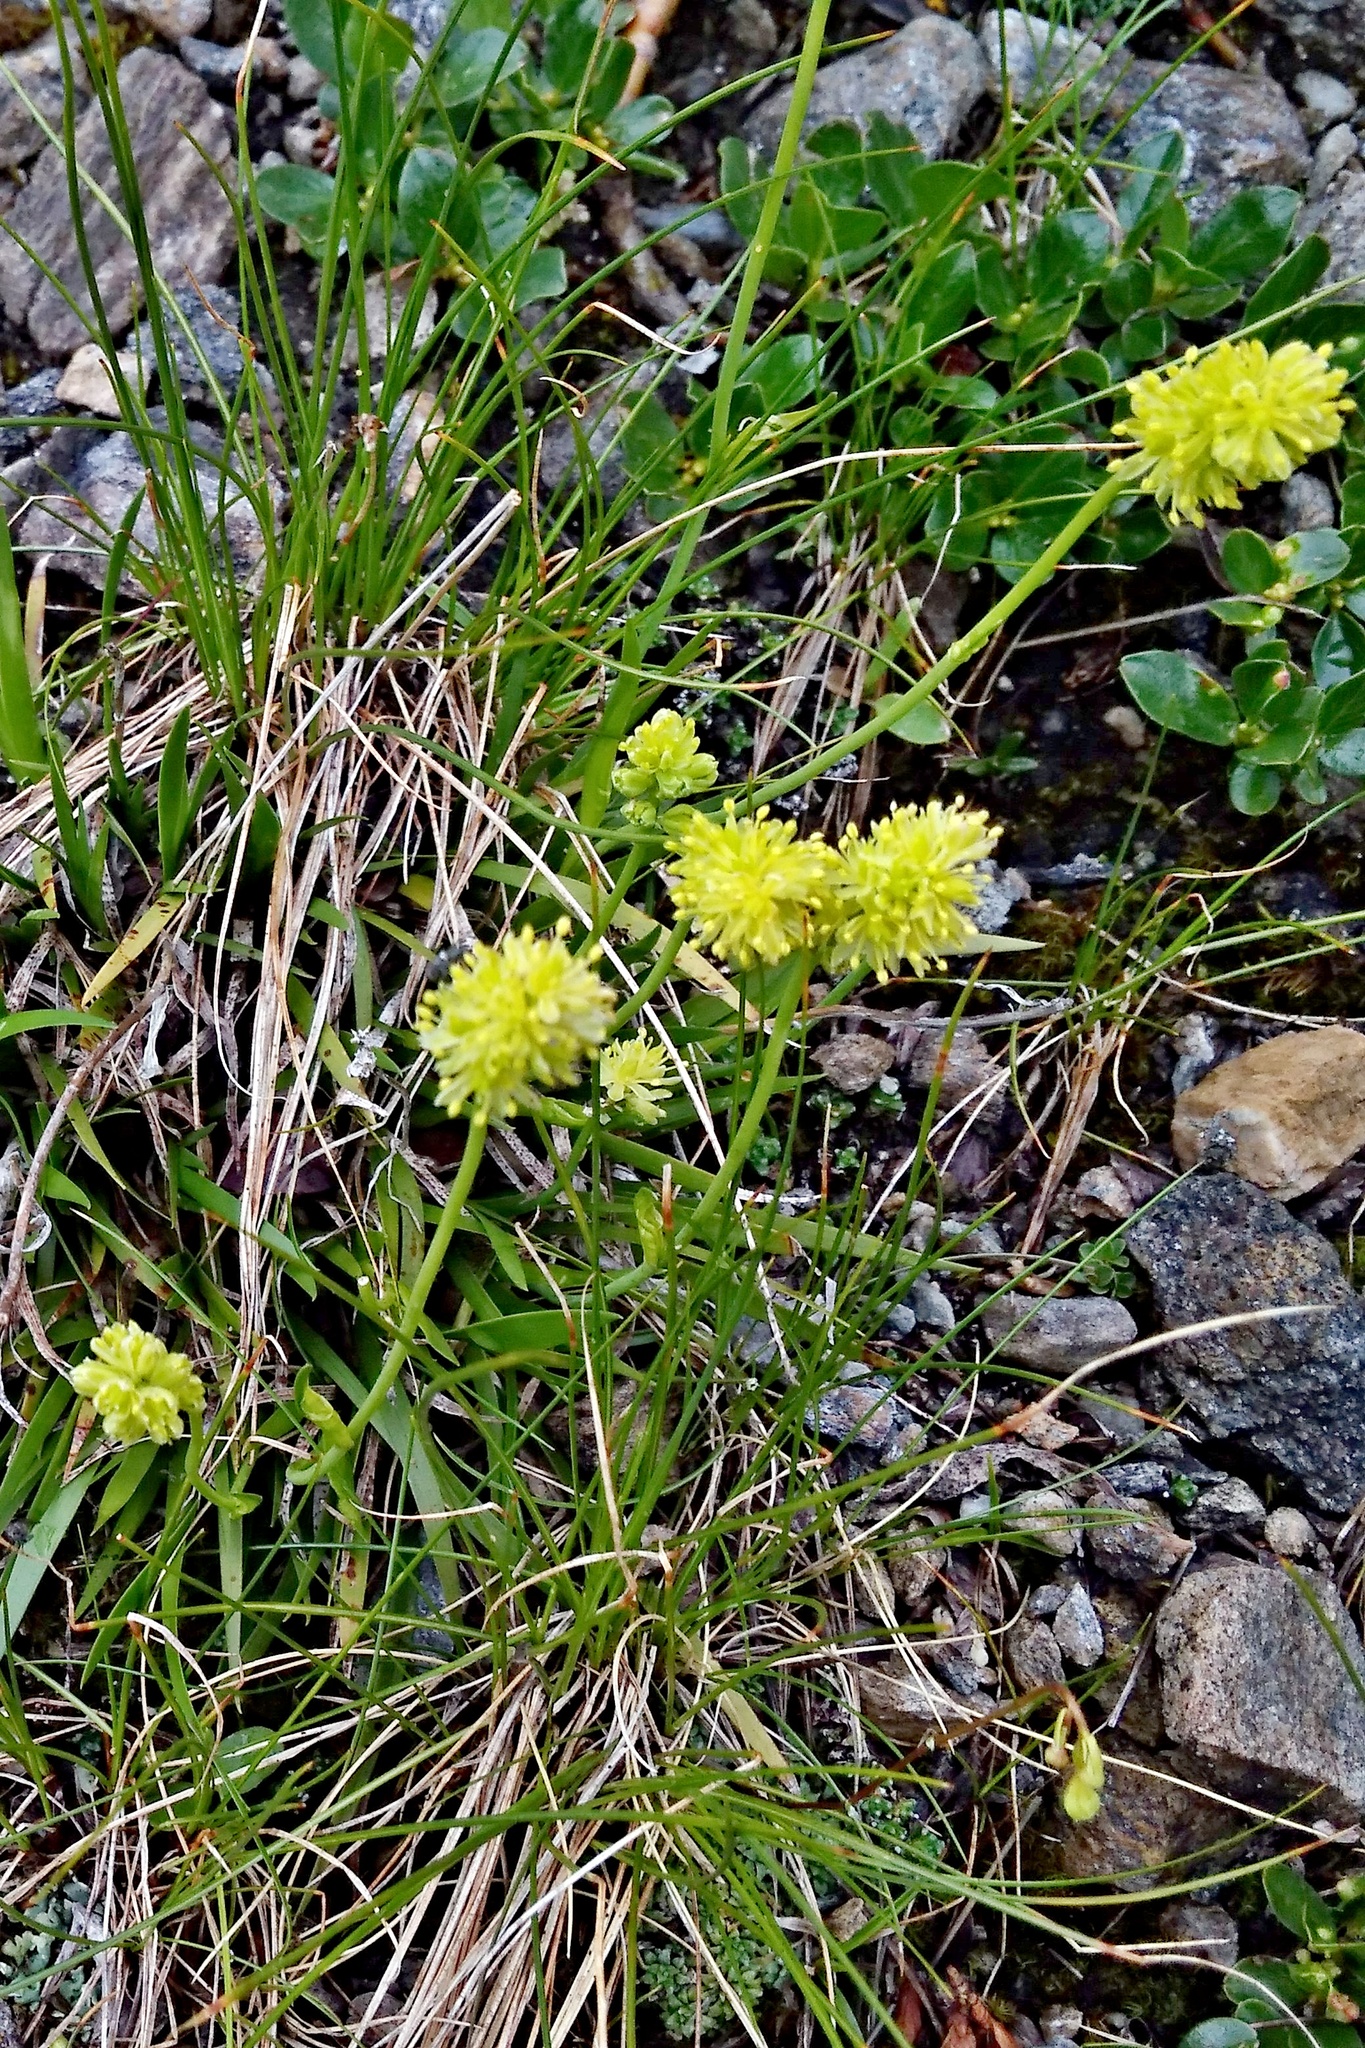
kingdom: Plantae
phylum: Tracheophyta
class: Liliopsida
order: Alismatales
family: Tofieldiaceae
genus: Tofieldia
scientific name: Tofieldia calyculata
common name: German-asphodel
